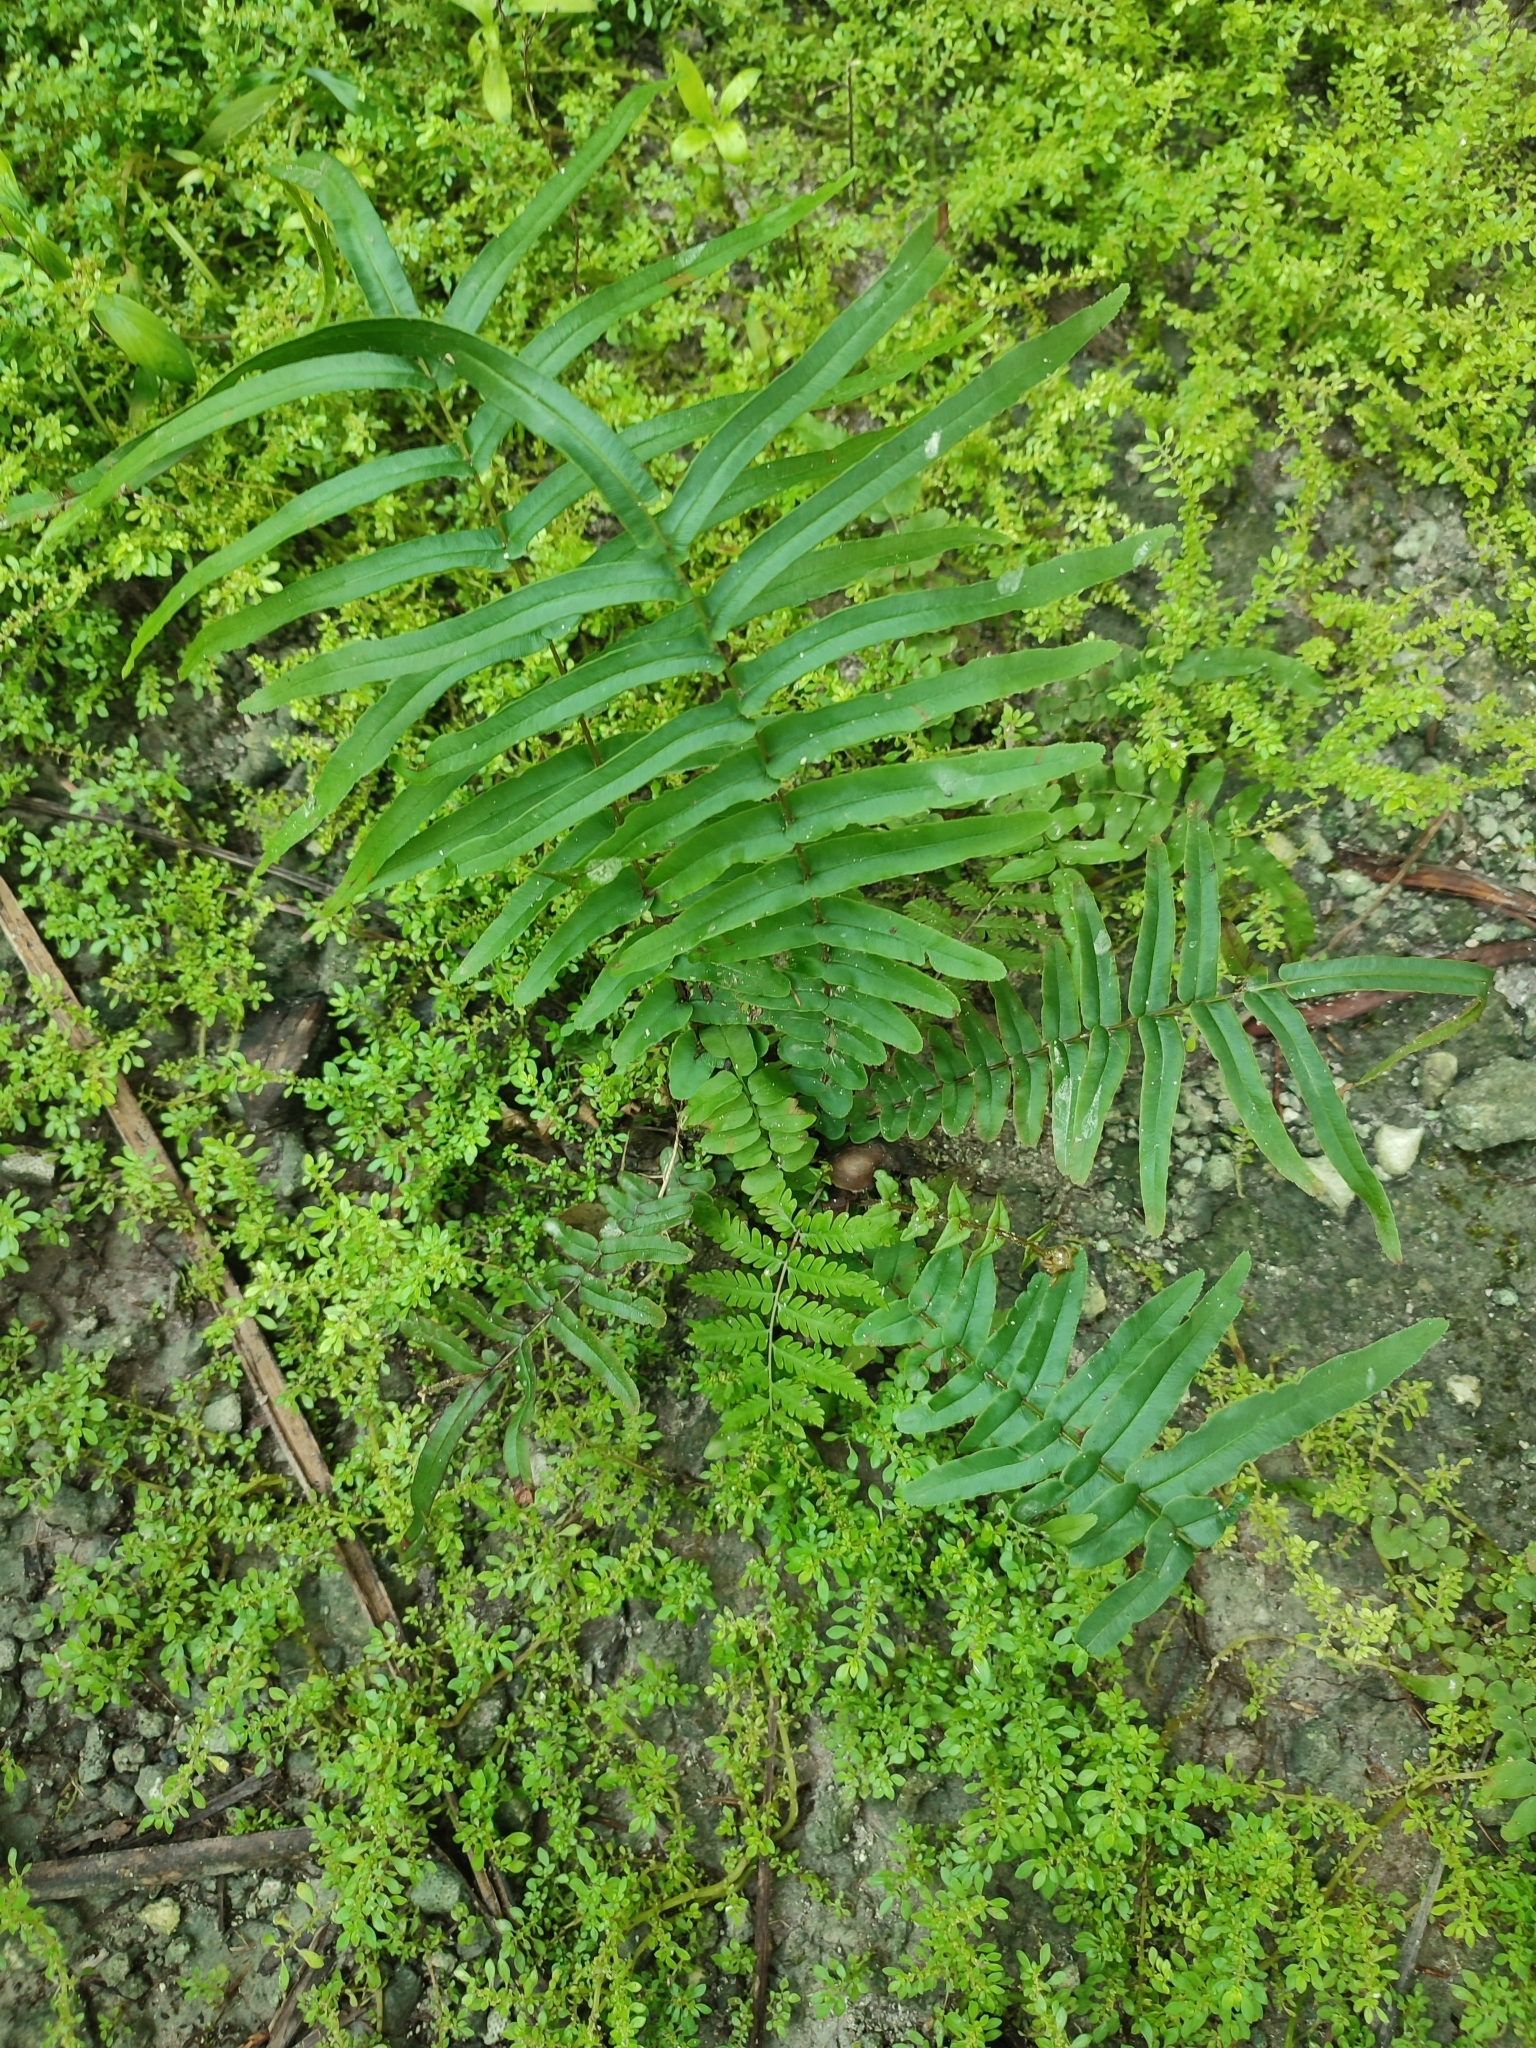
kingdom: Plantae
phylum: Tracheophyta
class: Polypodiopsida
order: Polypodiales
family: Pteridaceae
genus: Pteris
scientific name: Pteris vittata
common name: Ladder brake
